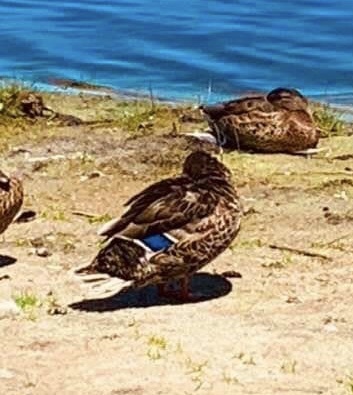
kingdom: Animalia
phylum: Chordata
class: Aves
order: Anseriformes
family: Anatidae
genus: Anas
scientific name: Anas platyrhynchos
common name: Mallard
